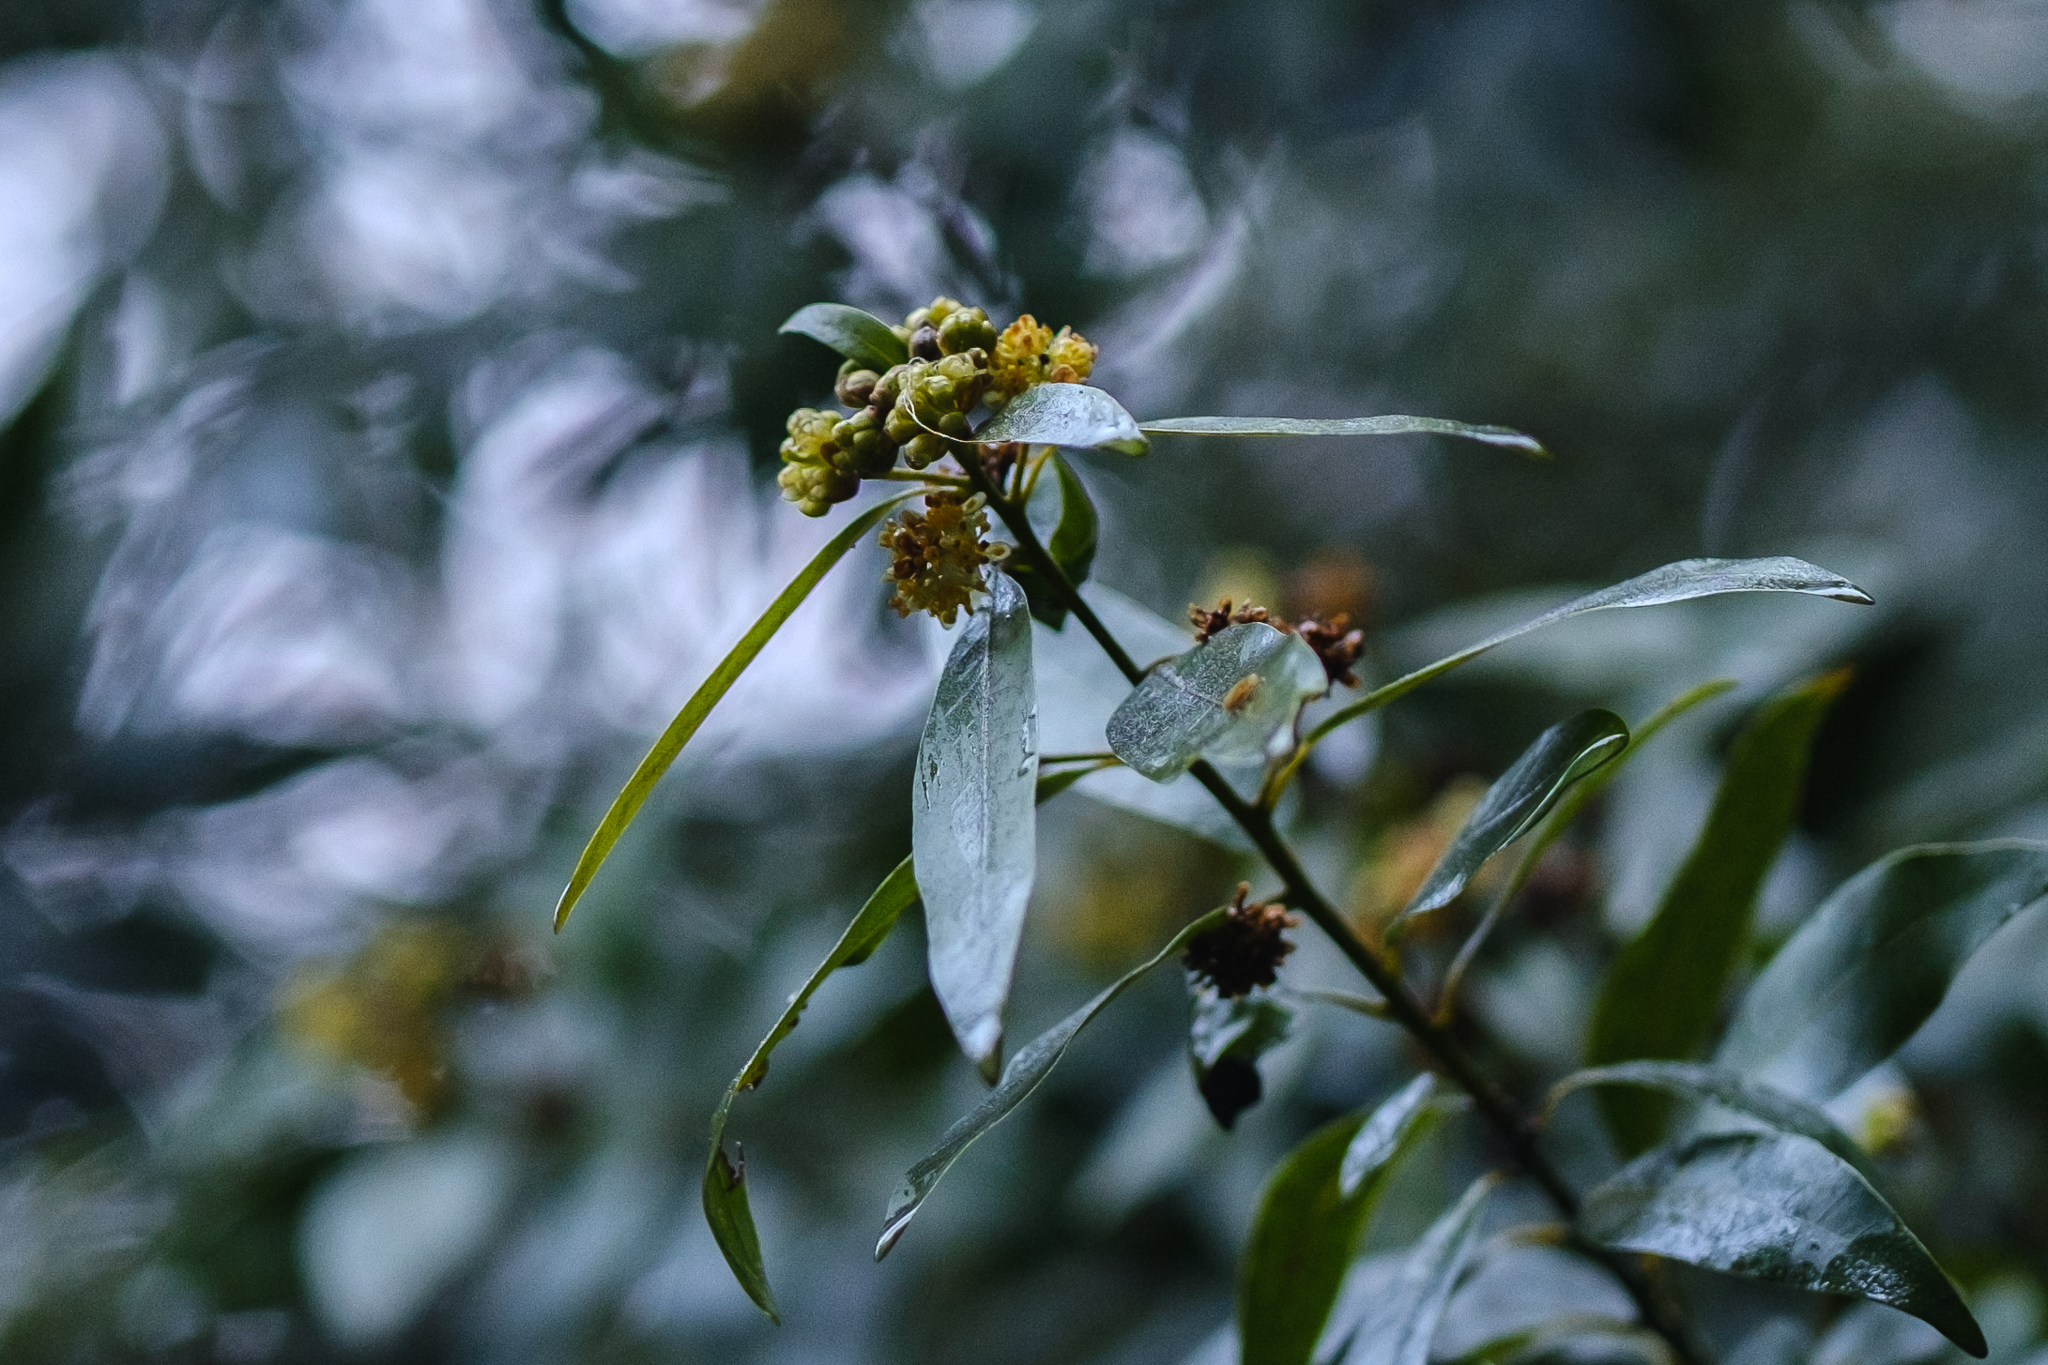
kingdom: Plantae
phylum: Tracheophyta
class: Magnoliopsida
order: Laurales
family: Lauraceae
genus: Umbellularia
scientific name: Umbellularia californica
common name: California bay
